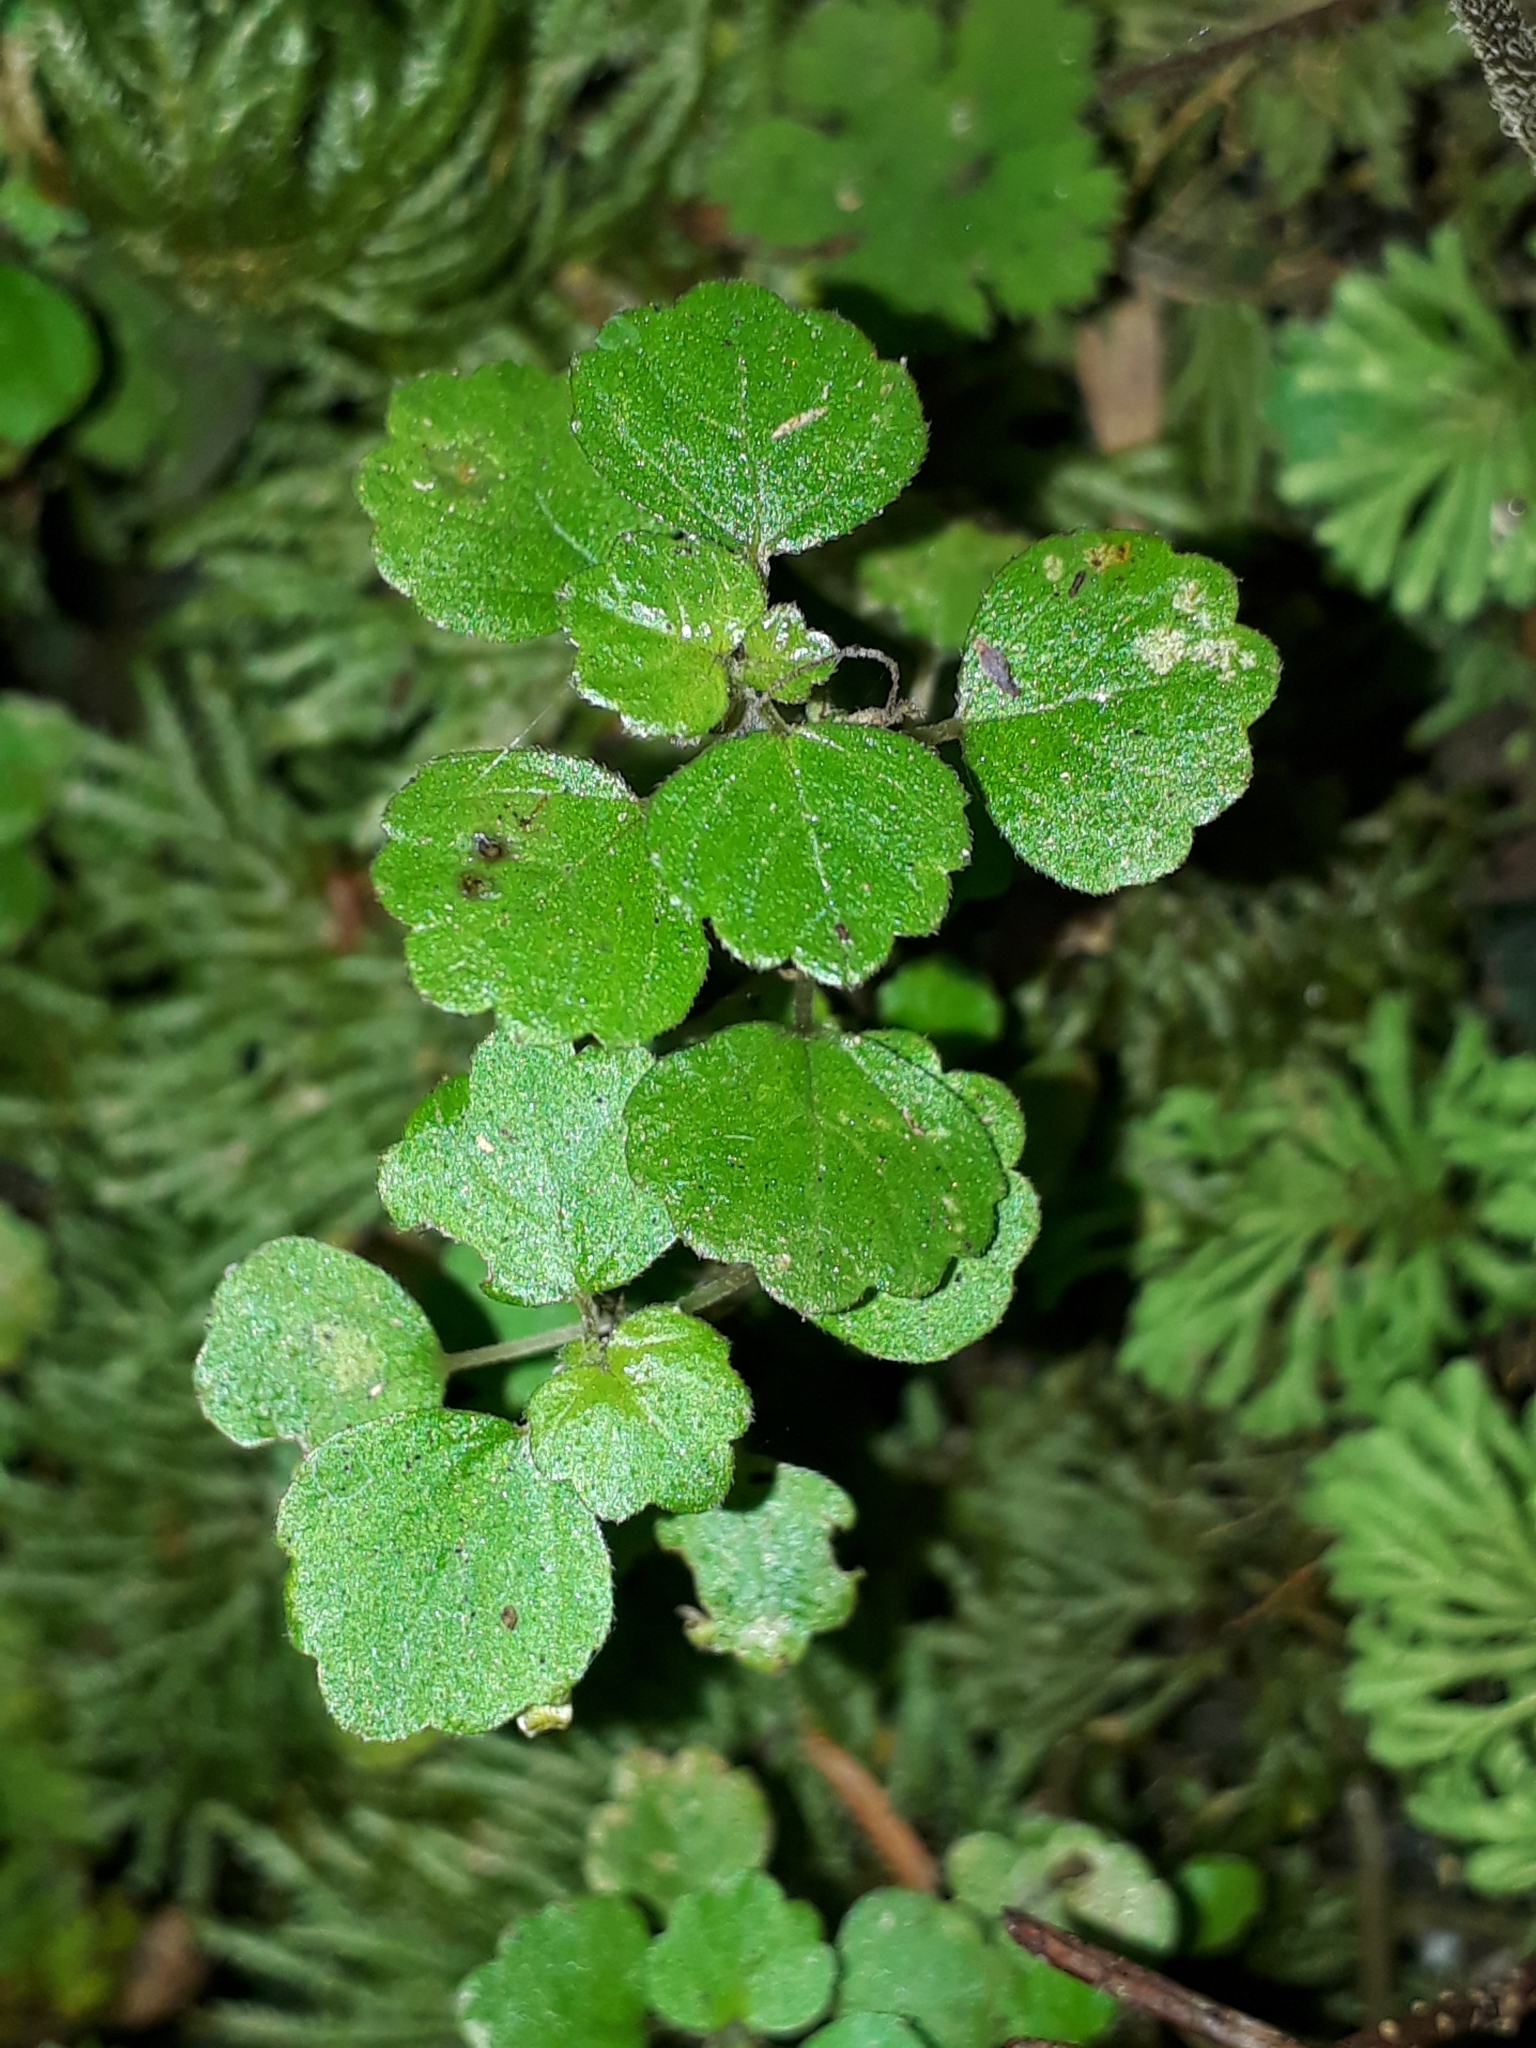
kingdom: Plantae
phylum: Tracheophyta
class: Magnoliopsida
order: Rosales
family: Urticaceae
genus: Australina
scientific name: Australina pusilla
